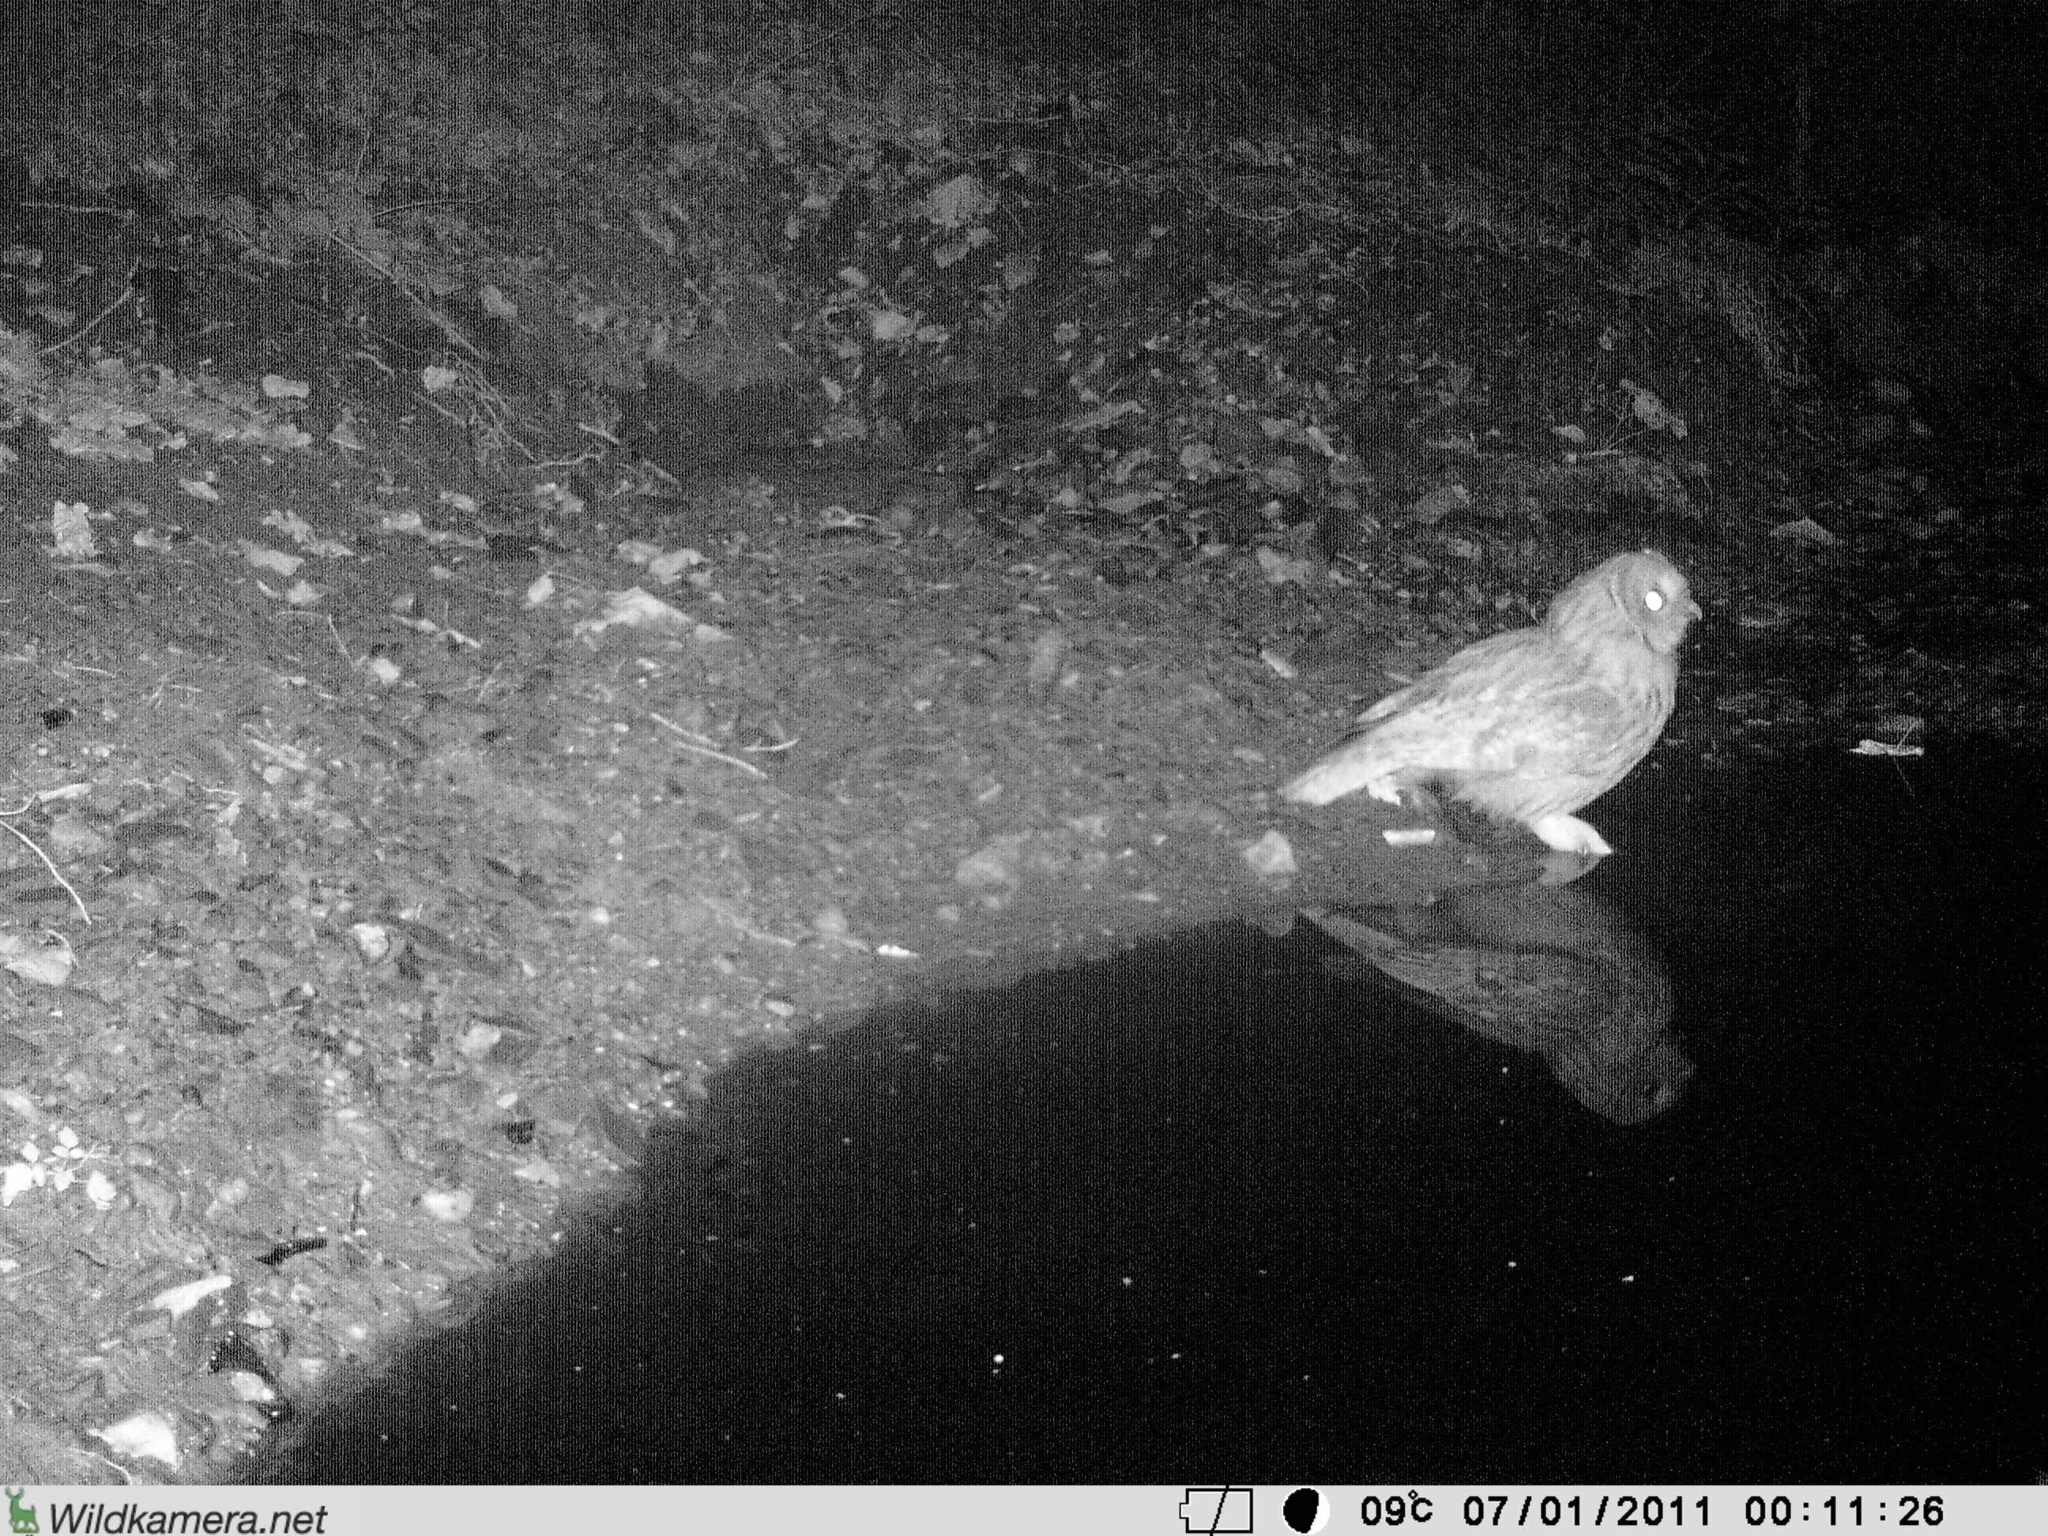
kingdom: Animalia
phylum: Chordata
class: Aves
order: Strigiformes
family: Strigidae
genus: Strix
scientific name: Strix aluco
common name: Tawny owl
